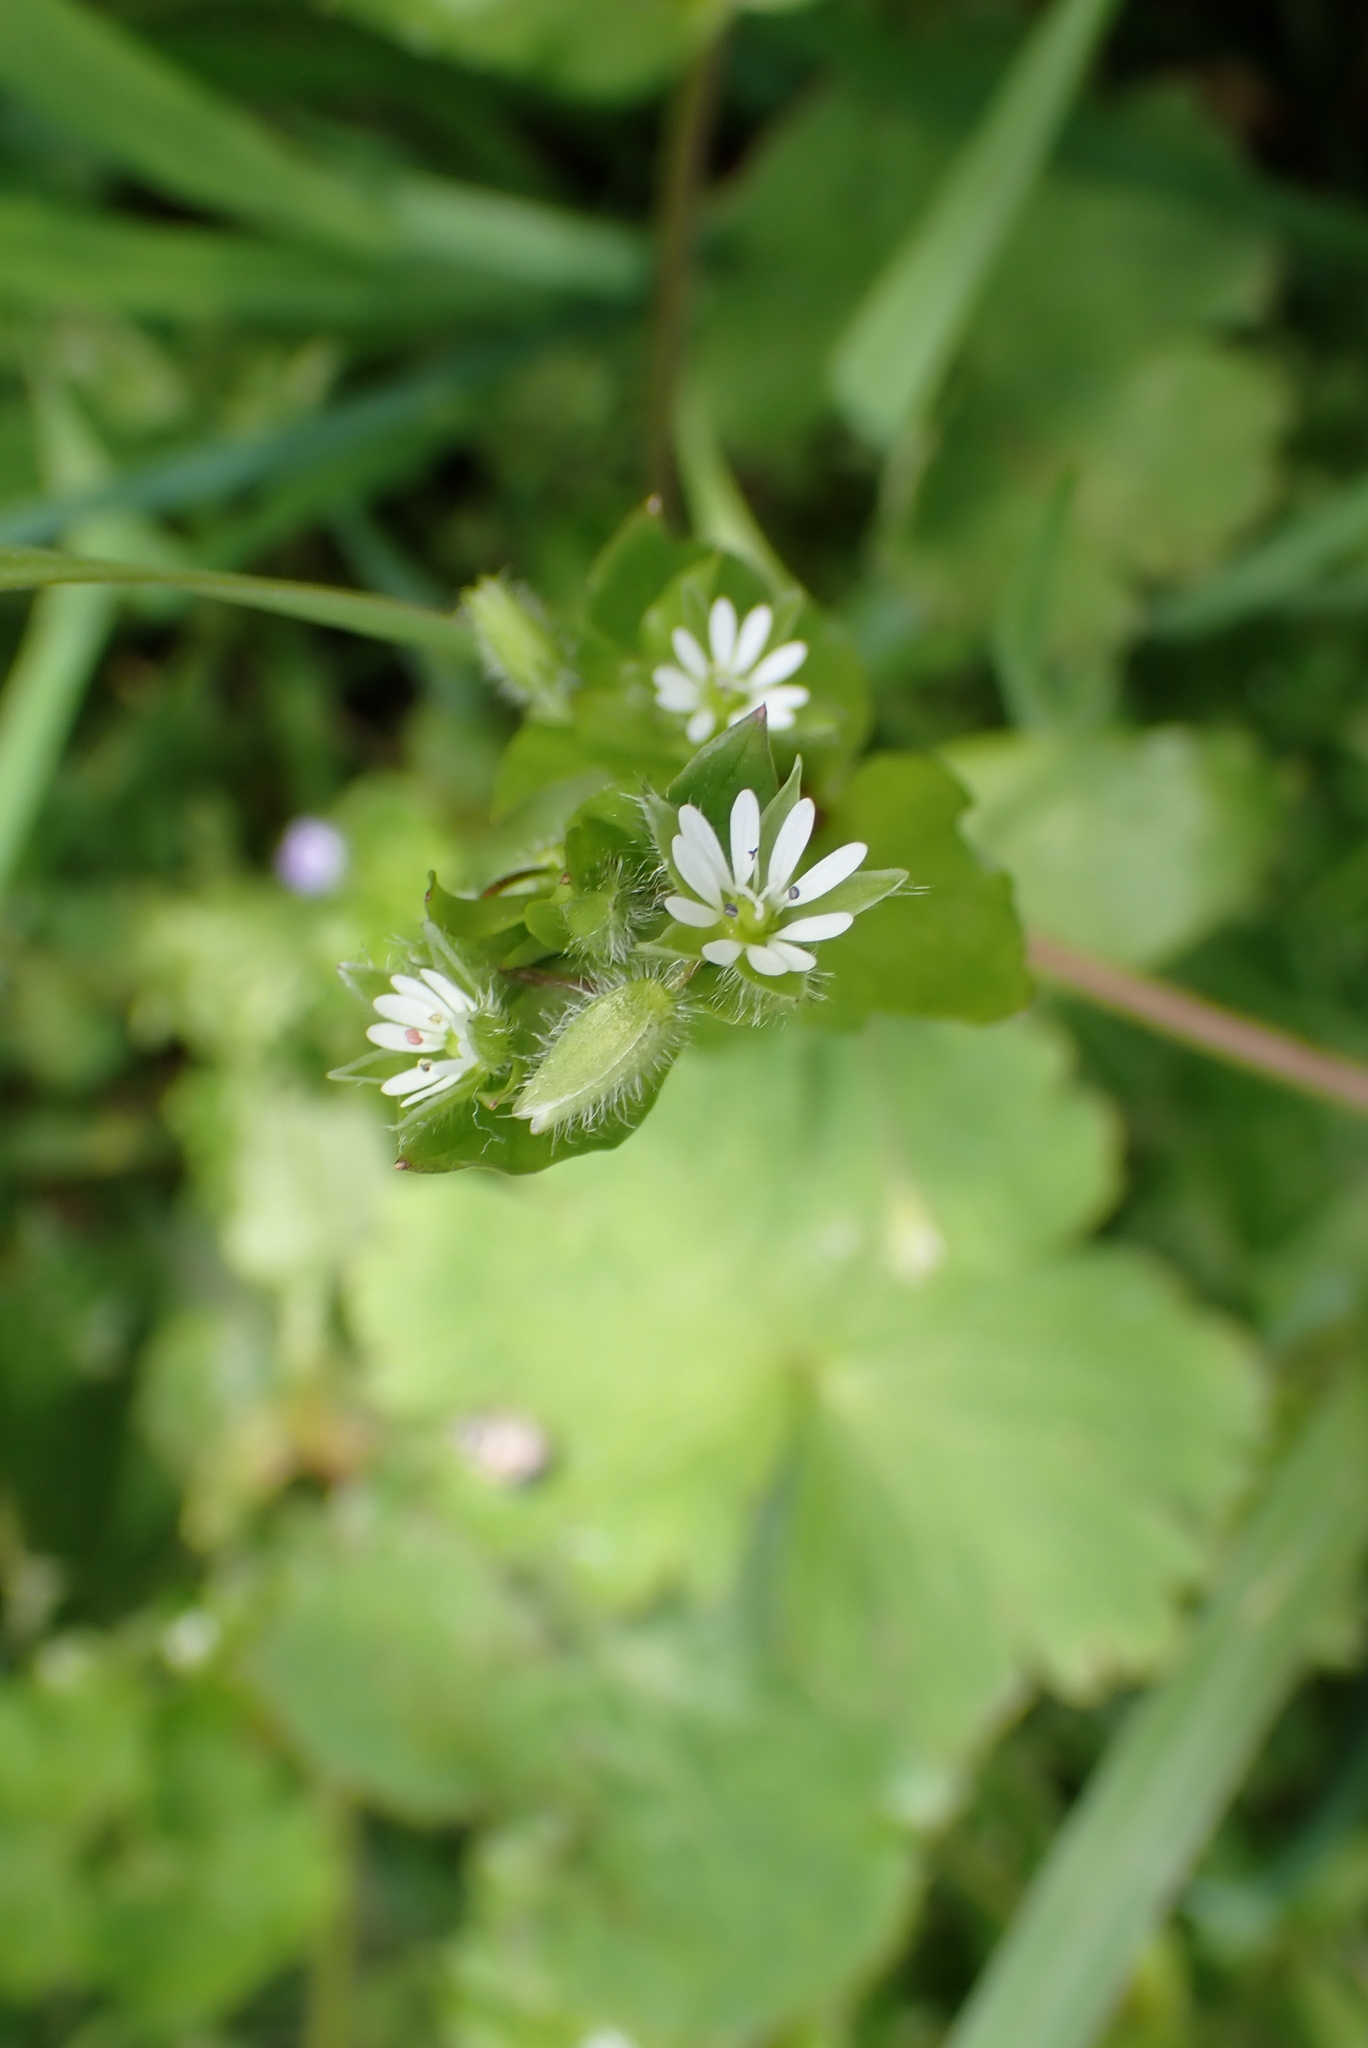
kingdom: Plantae
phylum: Tracheophyta
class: Magnoliopsida
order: Caryophyllales
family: Caryophyllaceae
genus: Stellaria
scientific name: Stellaria media
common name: Common chickweed
